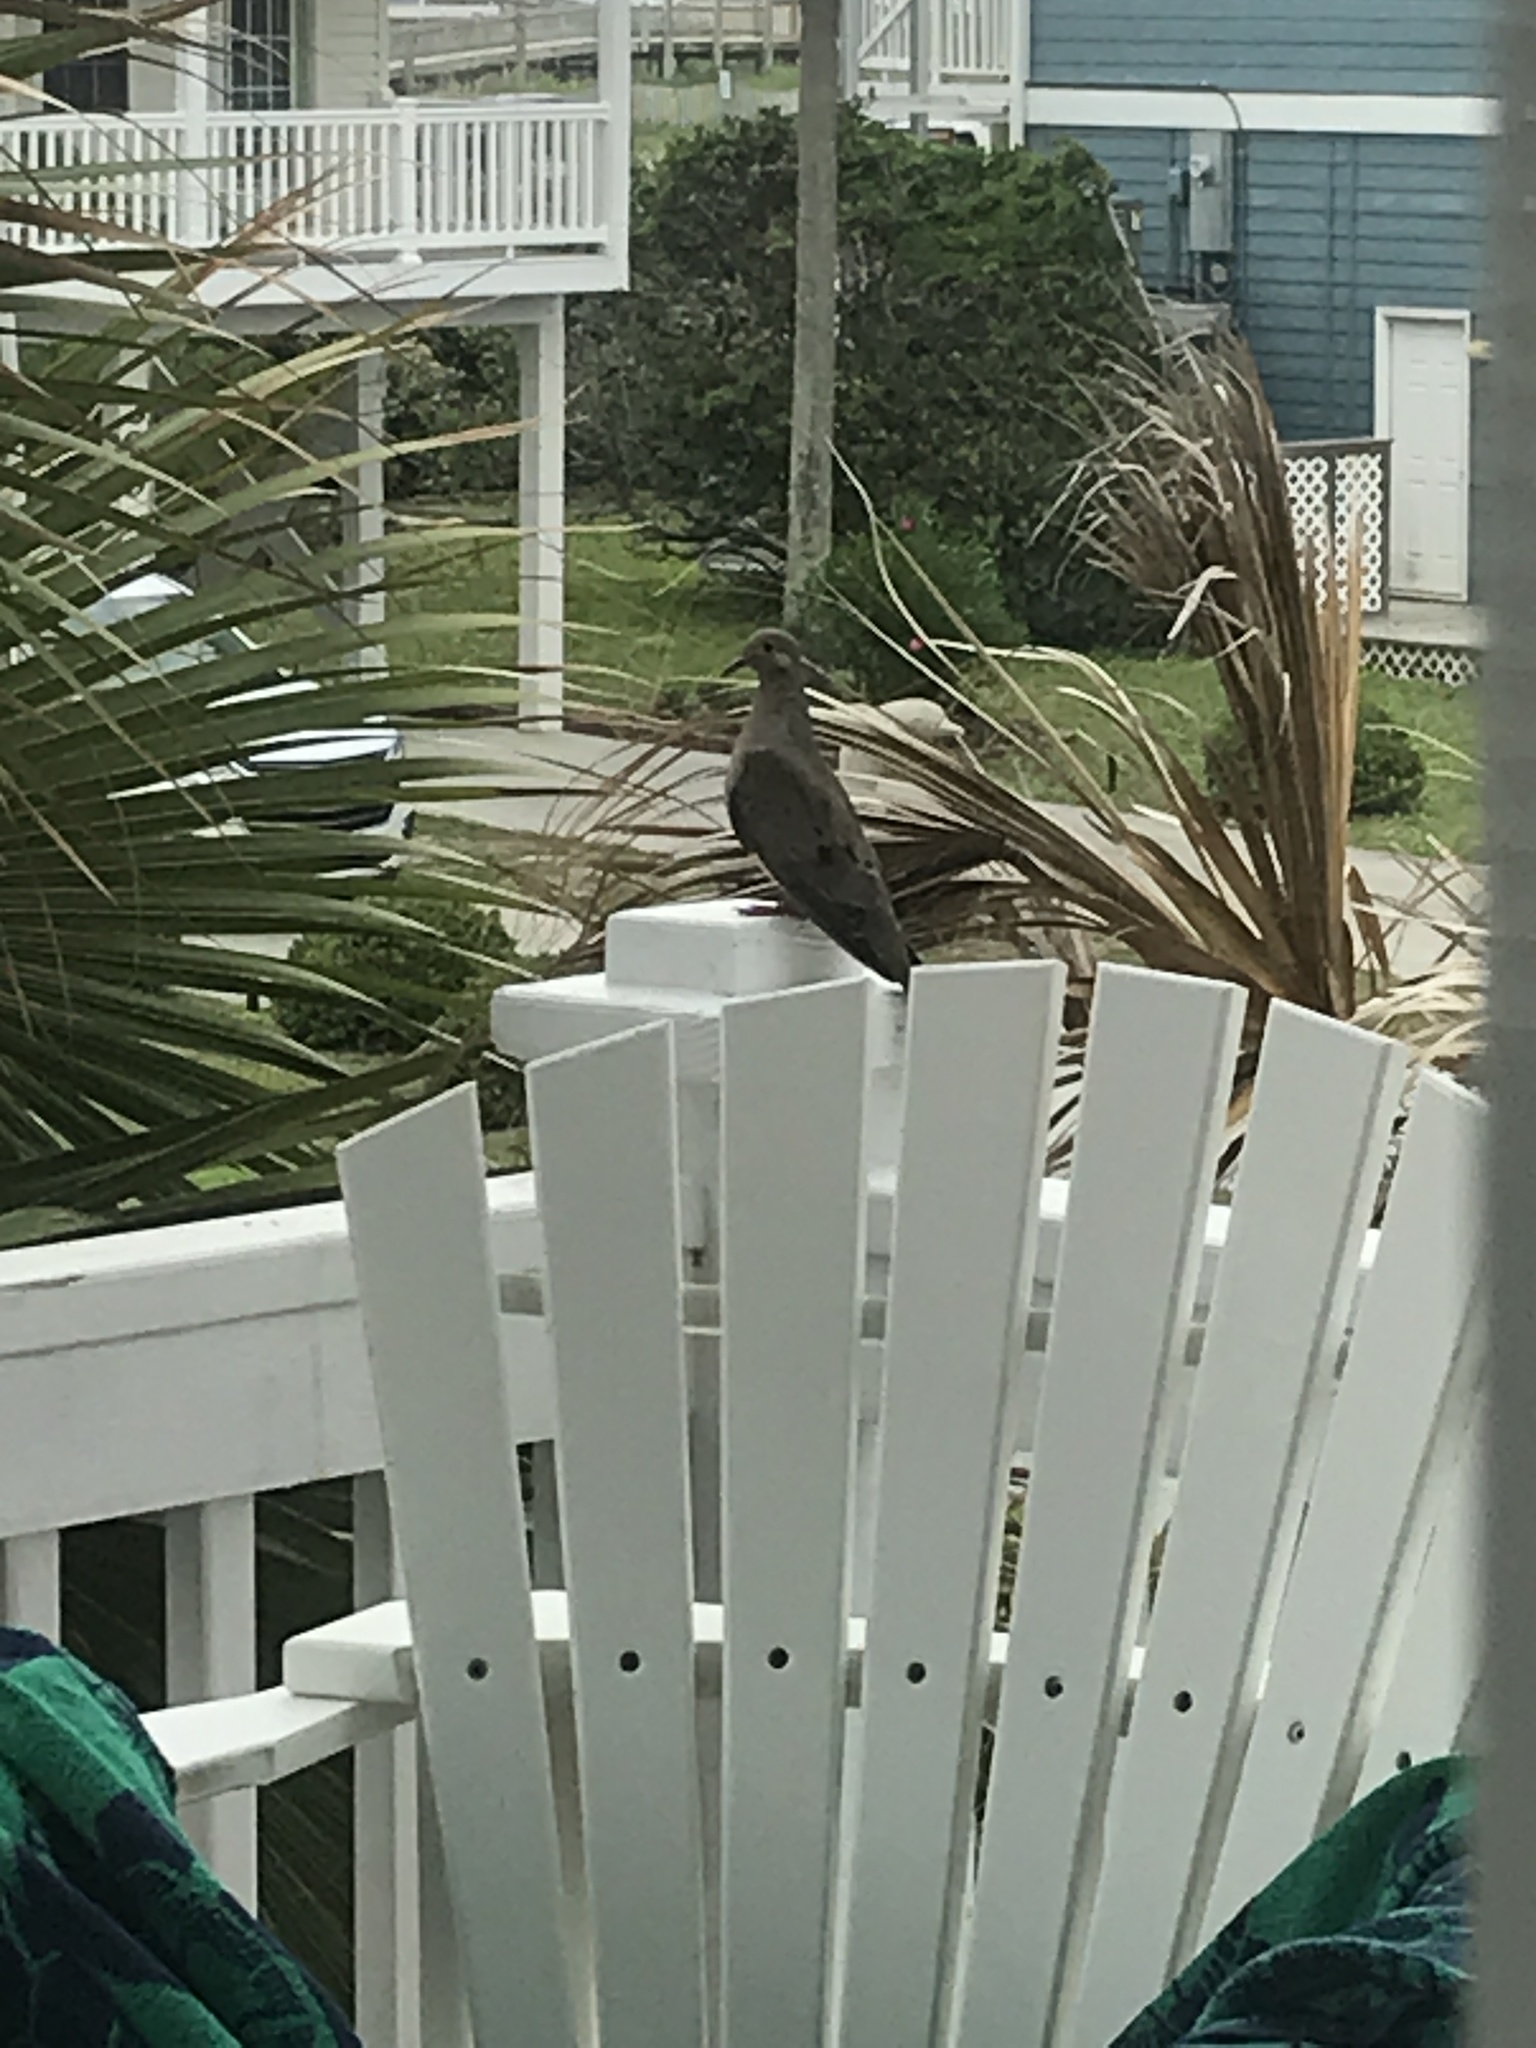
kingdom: Animalia
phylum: Chordata
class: Aves
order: Columbiformes
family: Columbidae
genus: Zenaida
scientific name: Zenaida macroura
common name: Mourning dove
